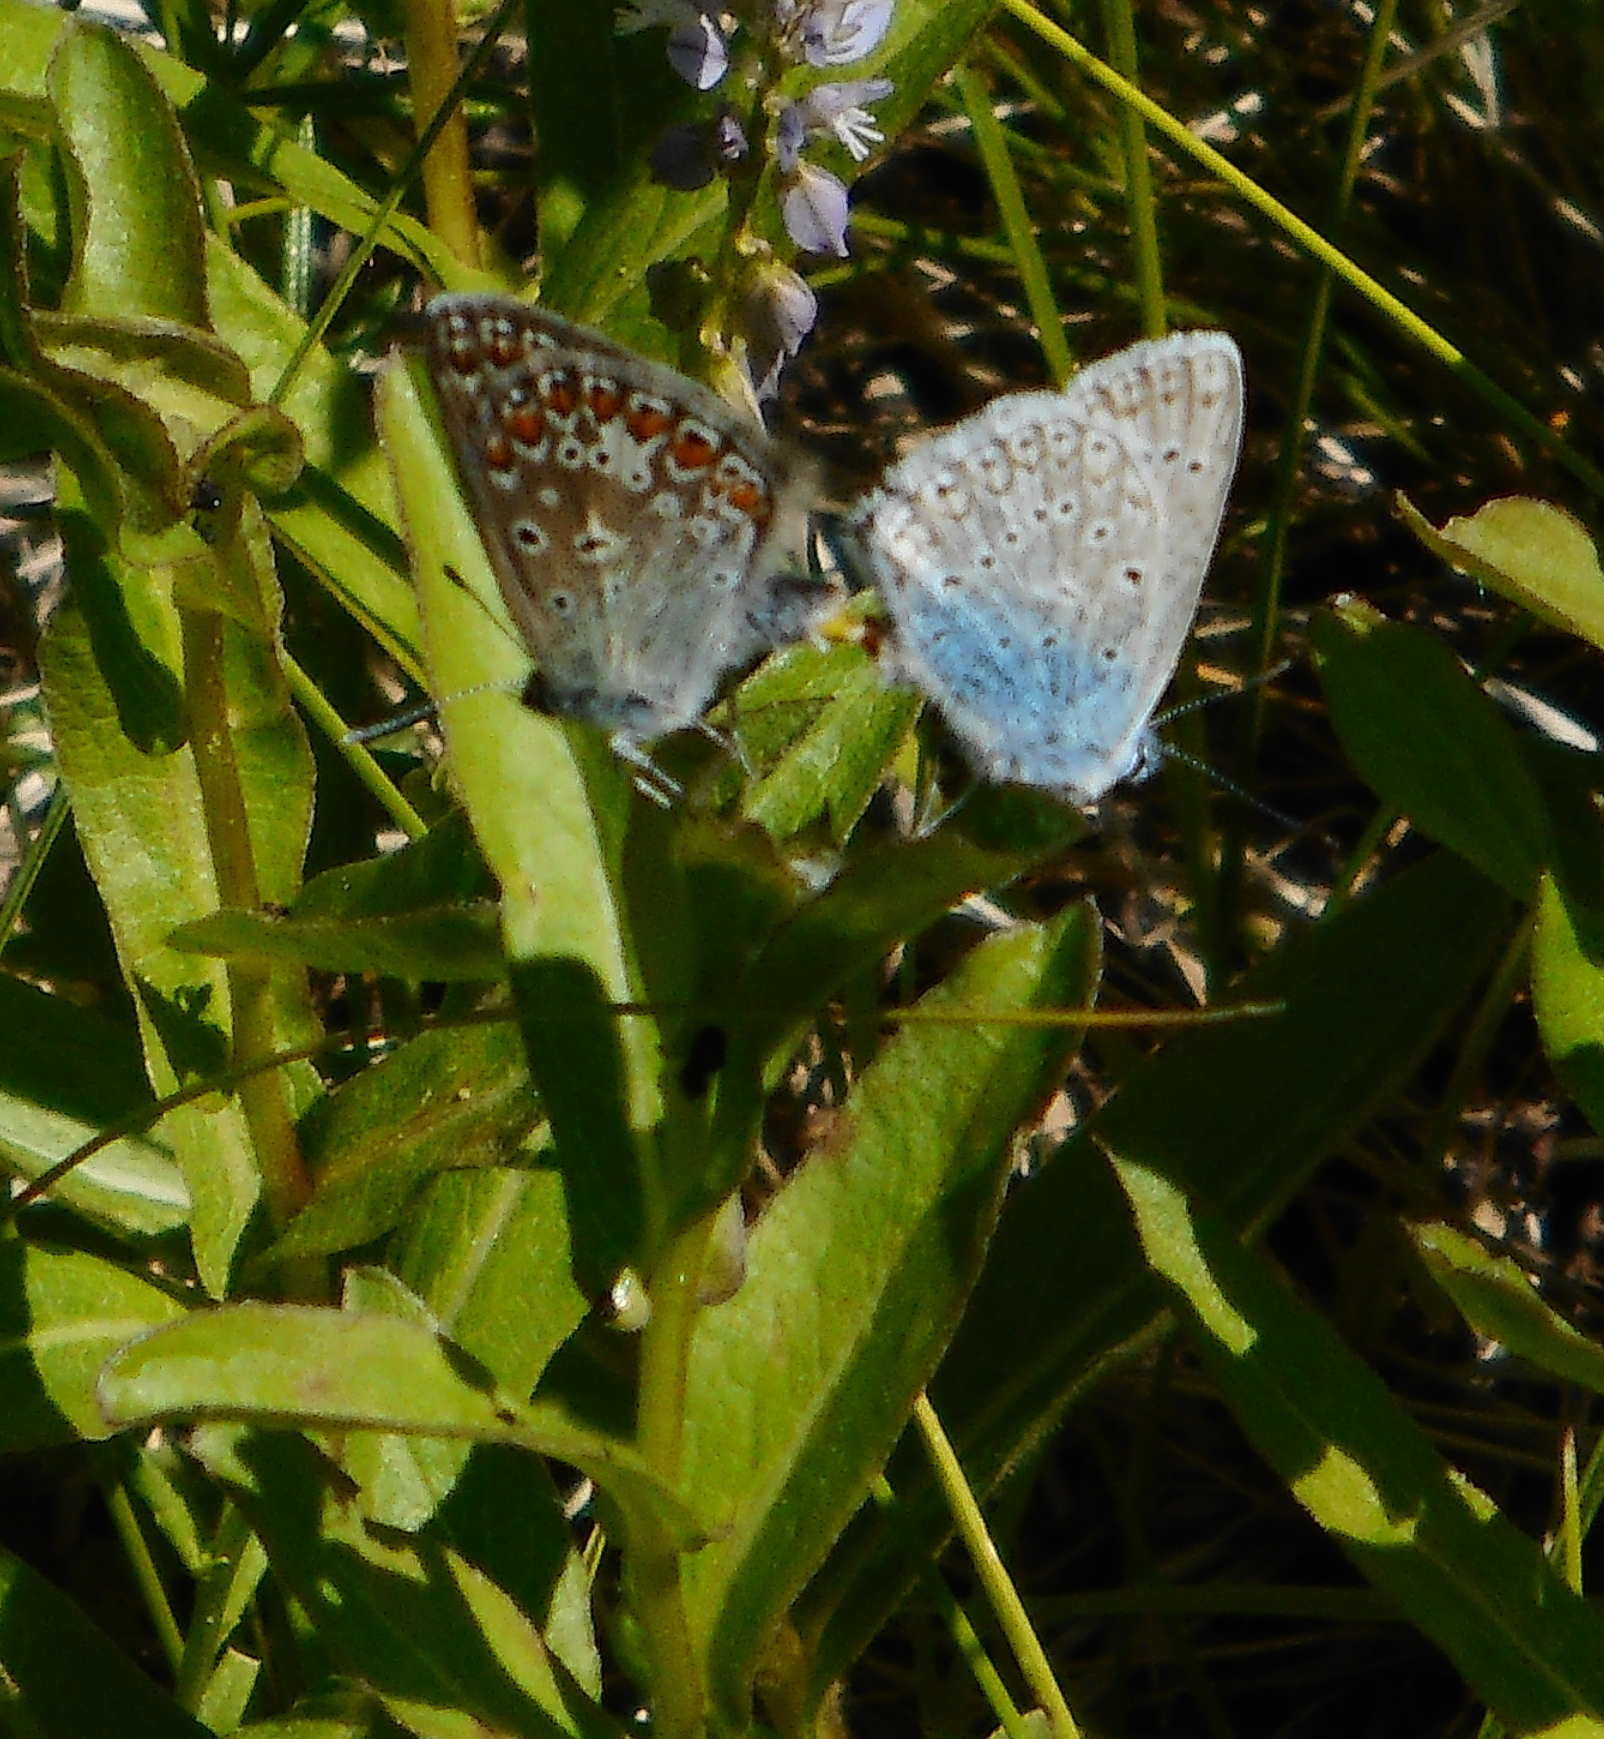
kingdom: Animalia
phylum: Arthropoda
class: Insecta
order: Lepidoptera
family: Lycaenidae
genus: Polyommatus
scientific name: Polyommatus icarus
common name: Common blue
